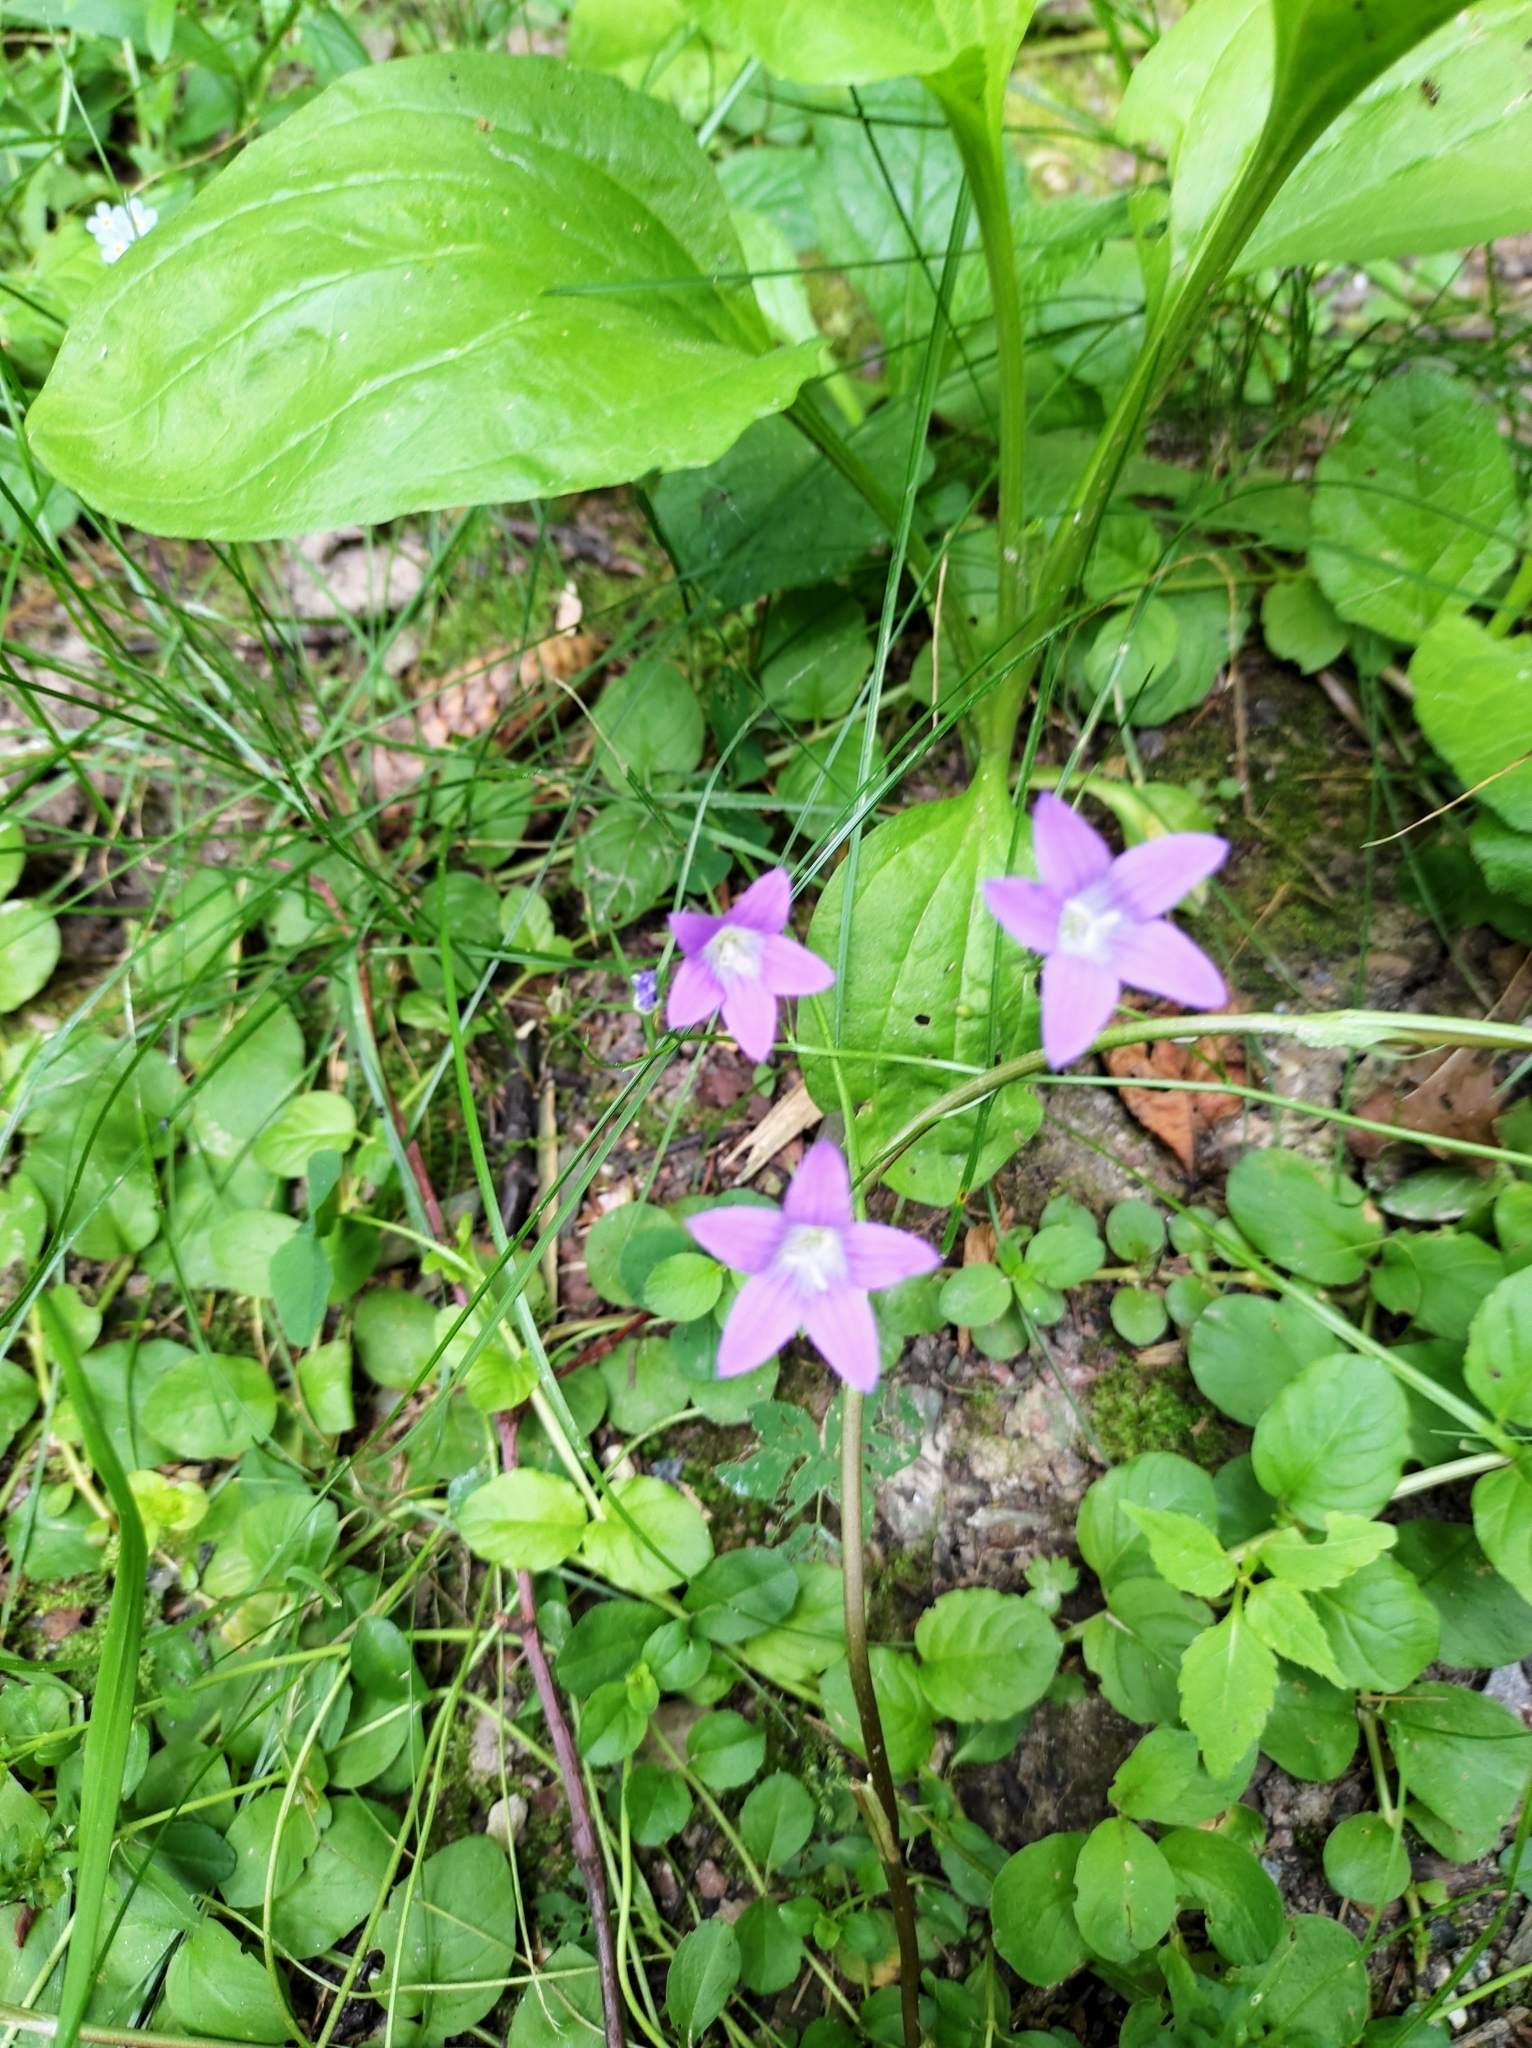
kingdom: Plantae
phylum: Tracheophyta
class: Magnoliopsida
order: Asterales
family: Campanulaceae
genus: Campanula
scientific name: Campanula patula
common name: Spreading bellflower
